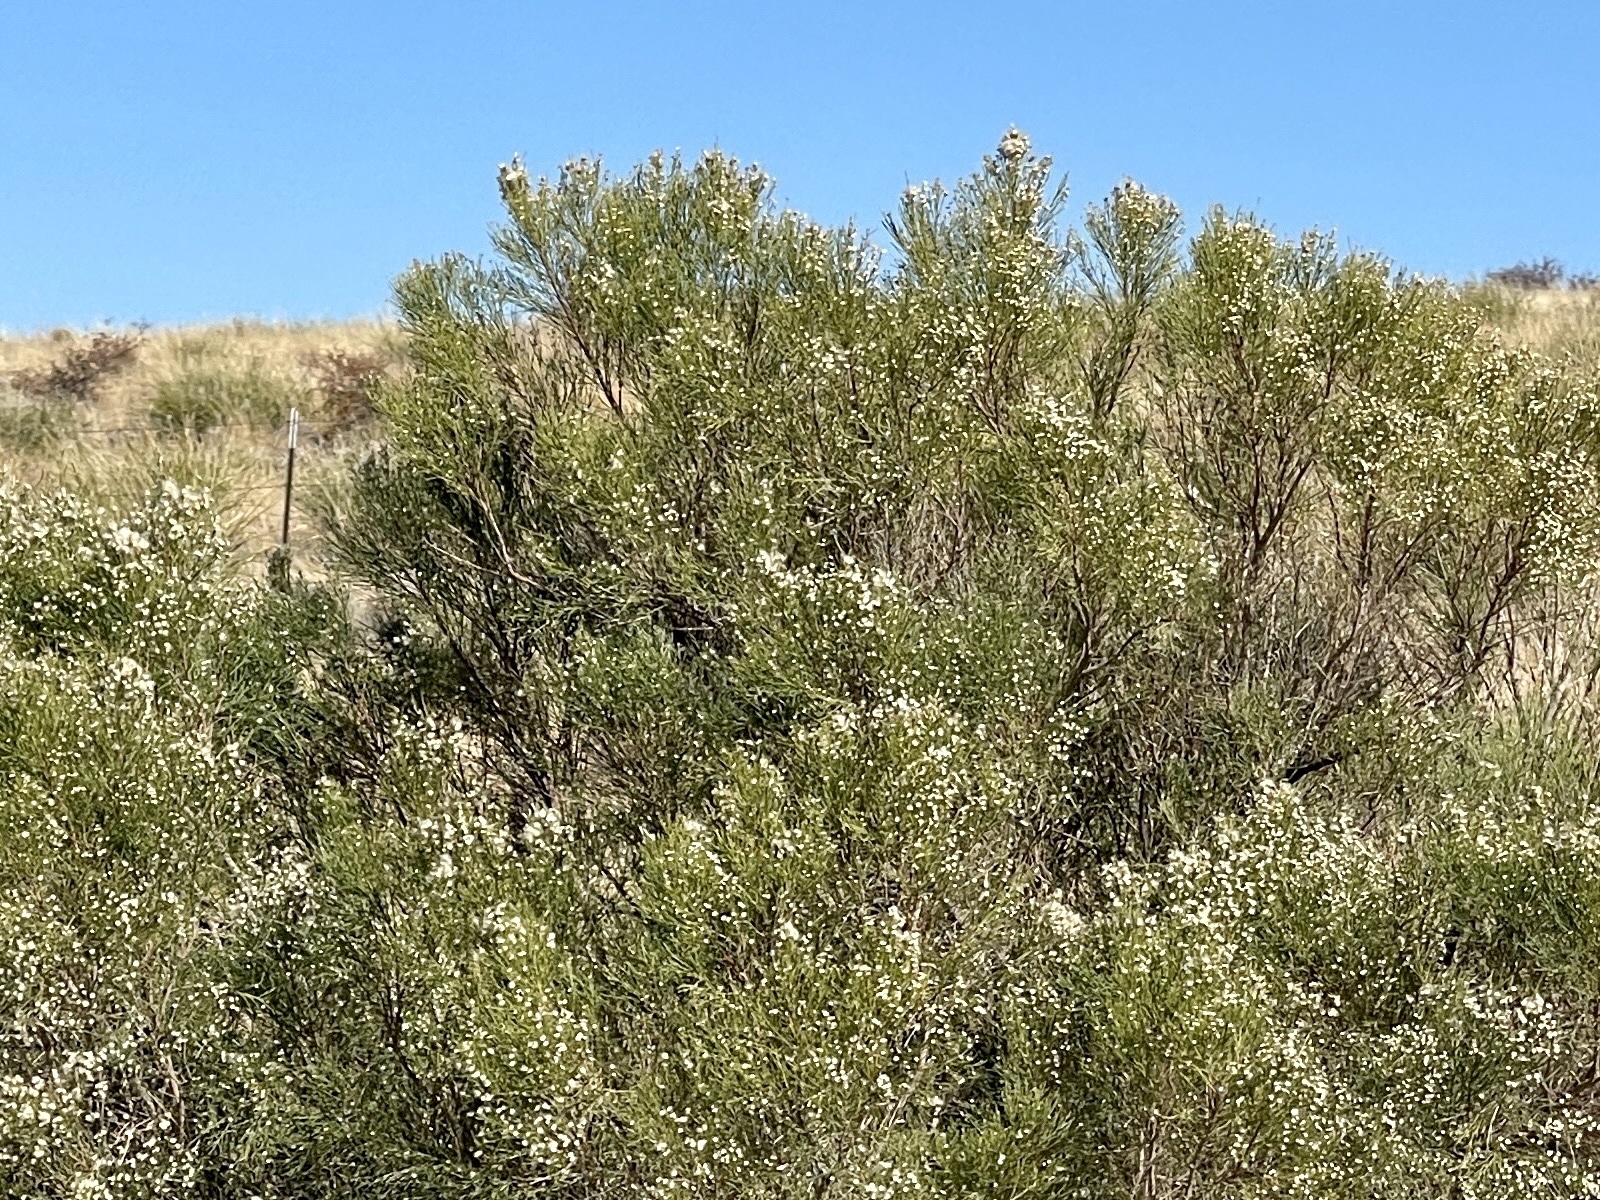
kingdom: Plantae
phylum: Tracheophyta
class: Magnoliopsida
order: Asterales
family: Asteraceae
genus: Baccharis
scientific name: Baccharis sarothroides
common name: Desert-broom
